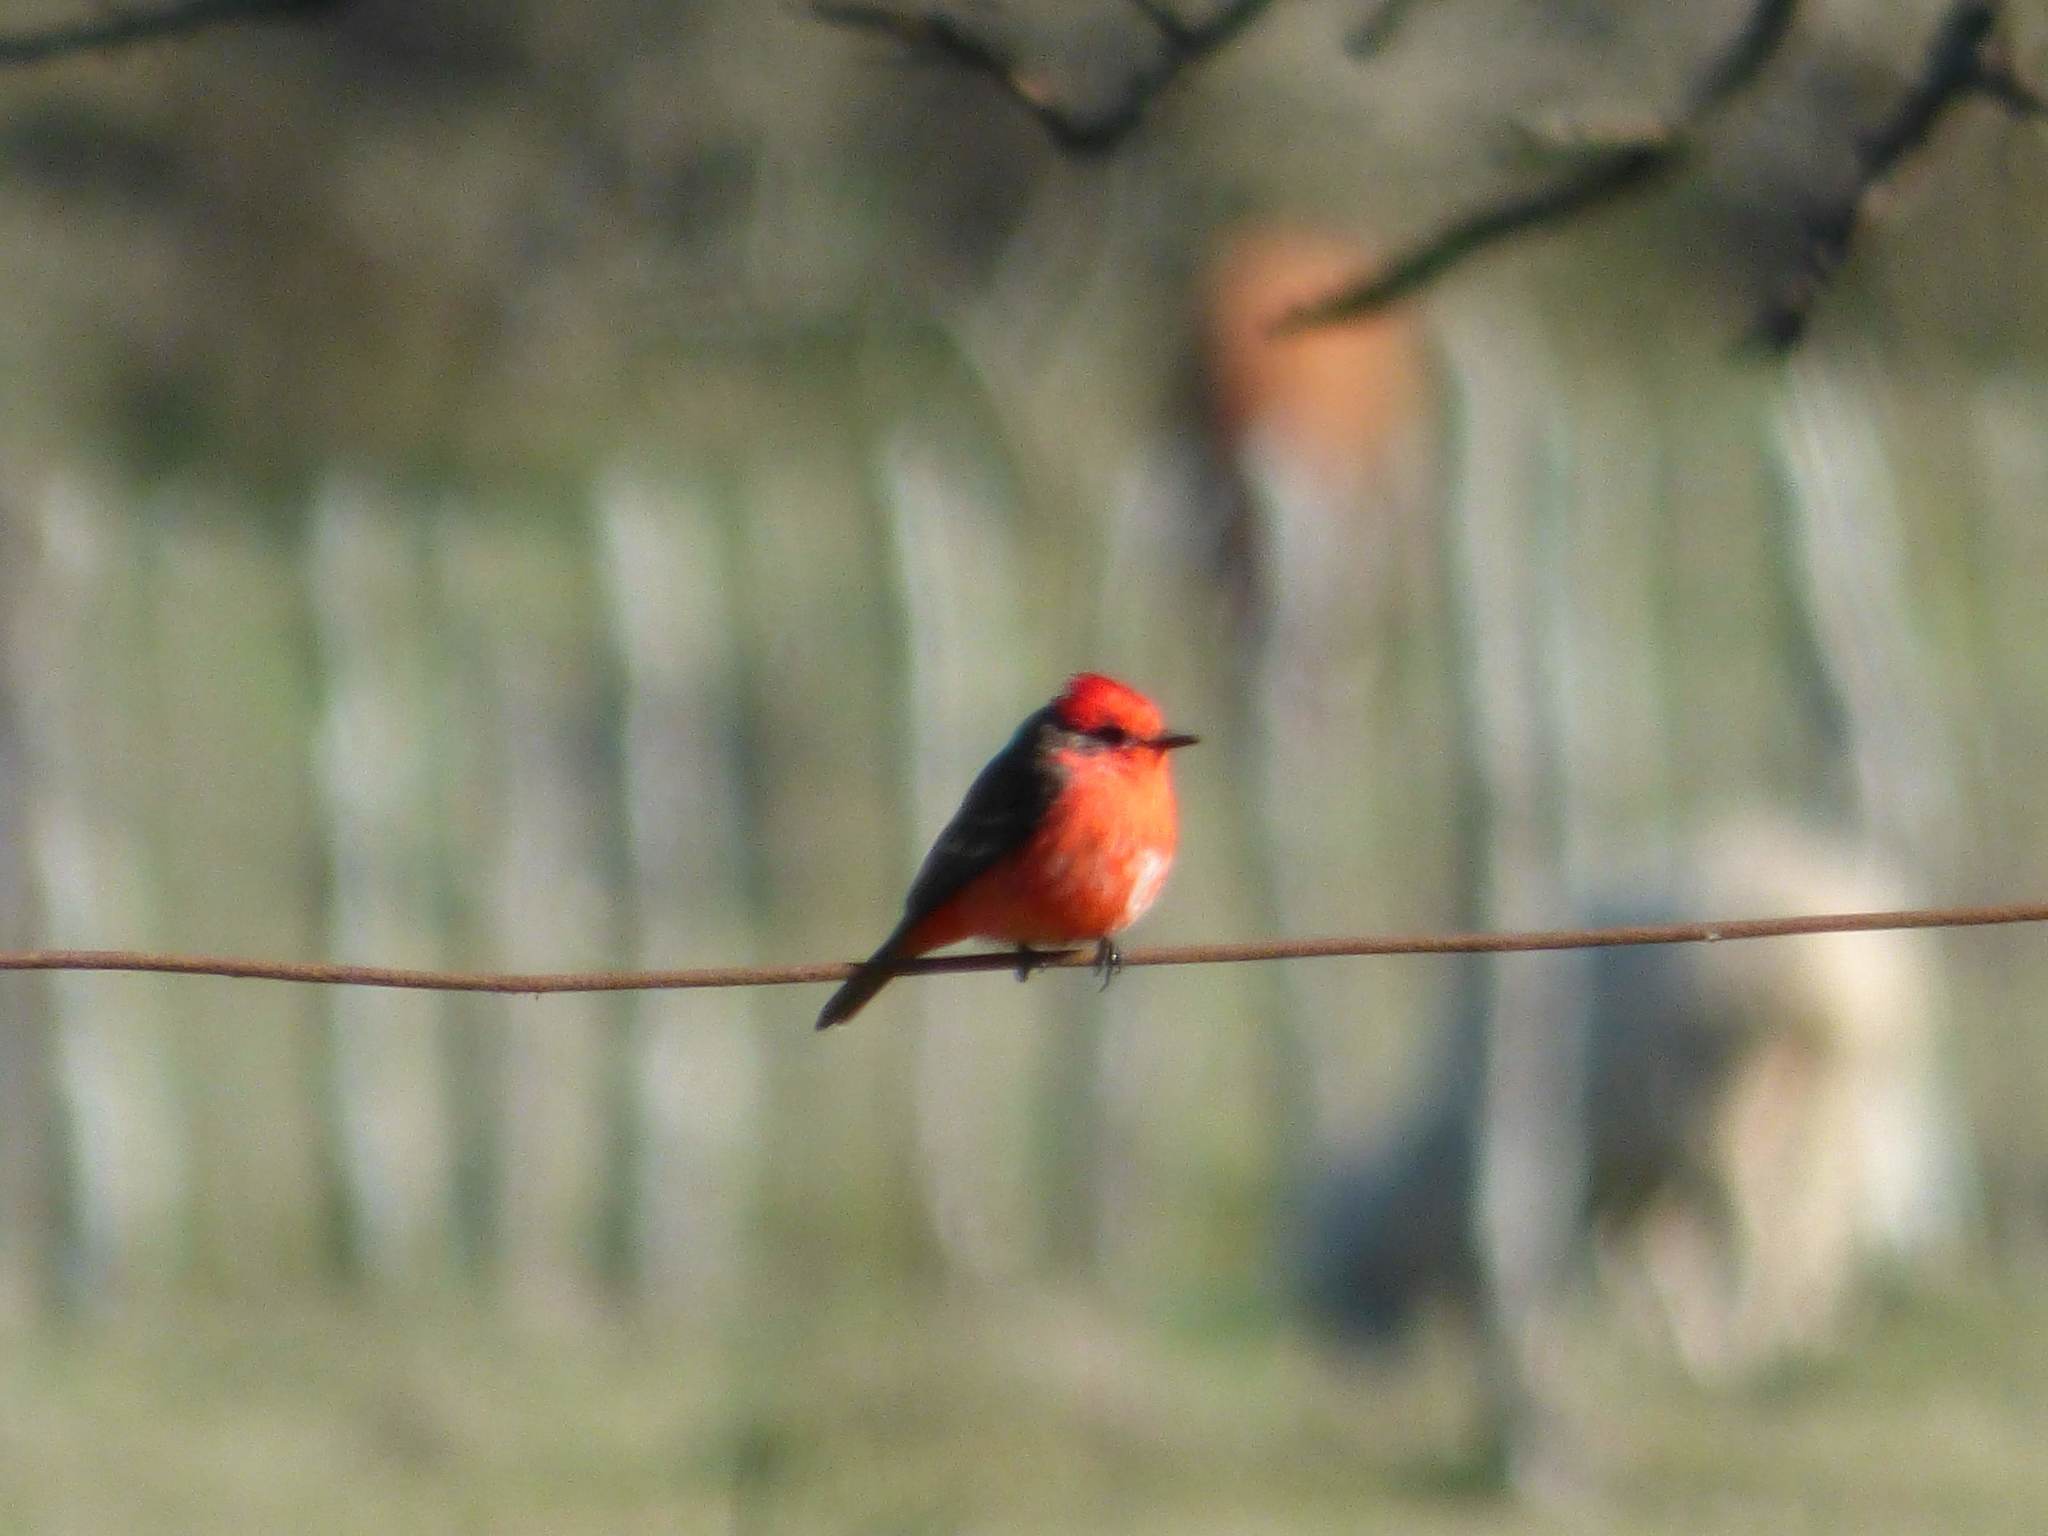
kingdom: Animalia
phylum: Chordata
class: Aves
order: Passeriformes
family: Tyrannidae
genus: Pyrocephalus
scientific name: Pyrocephalus rubinus
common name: Vermilion flycatcher
